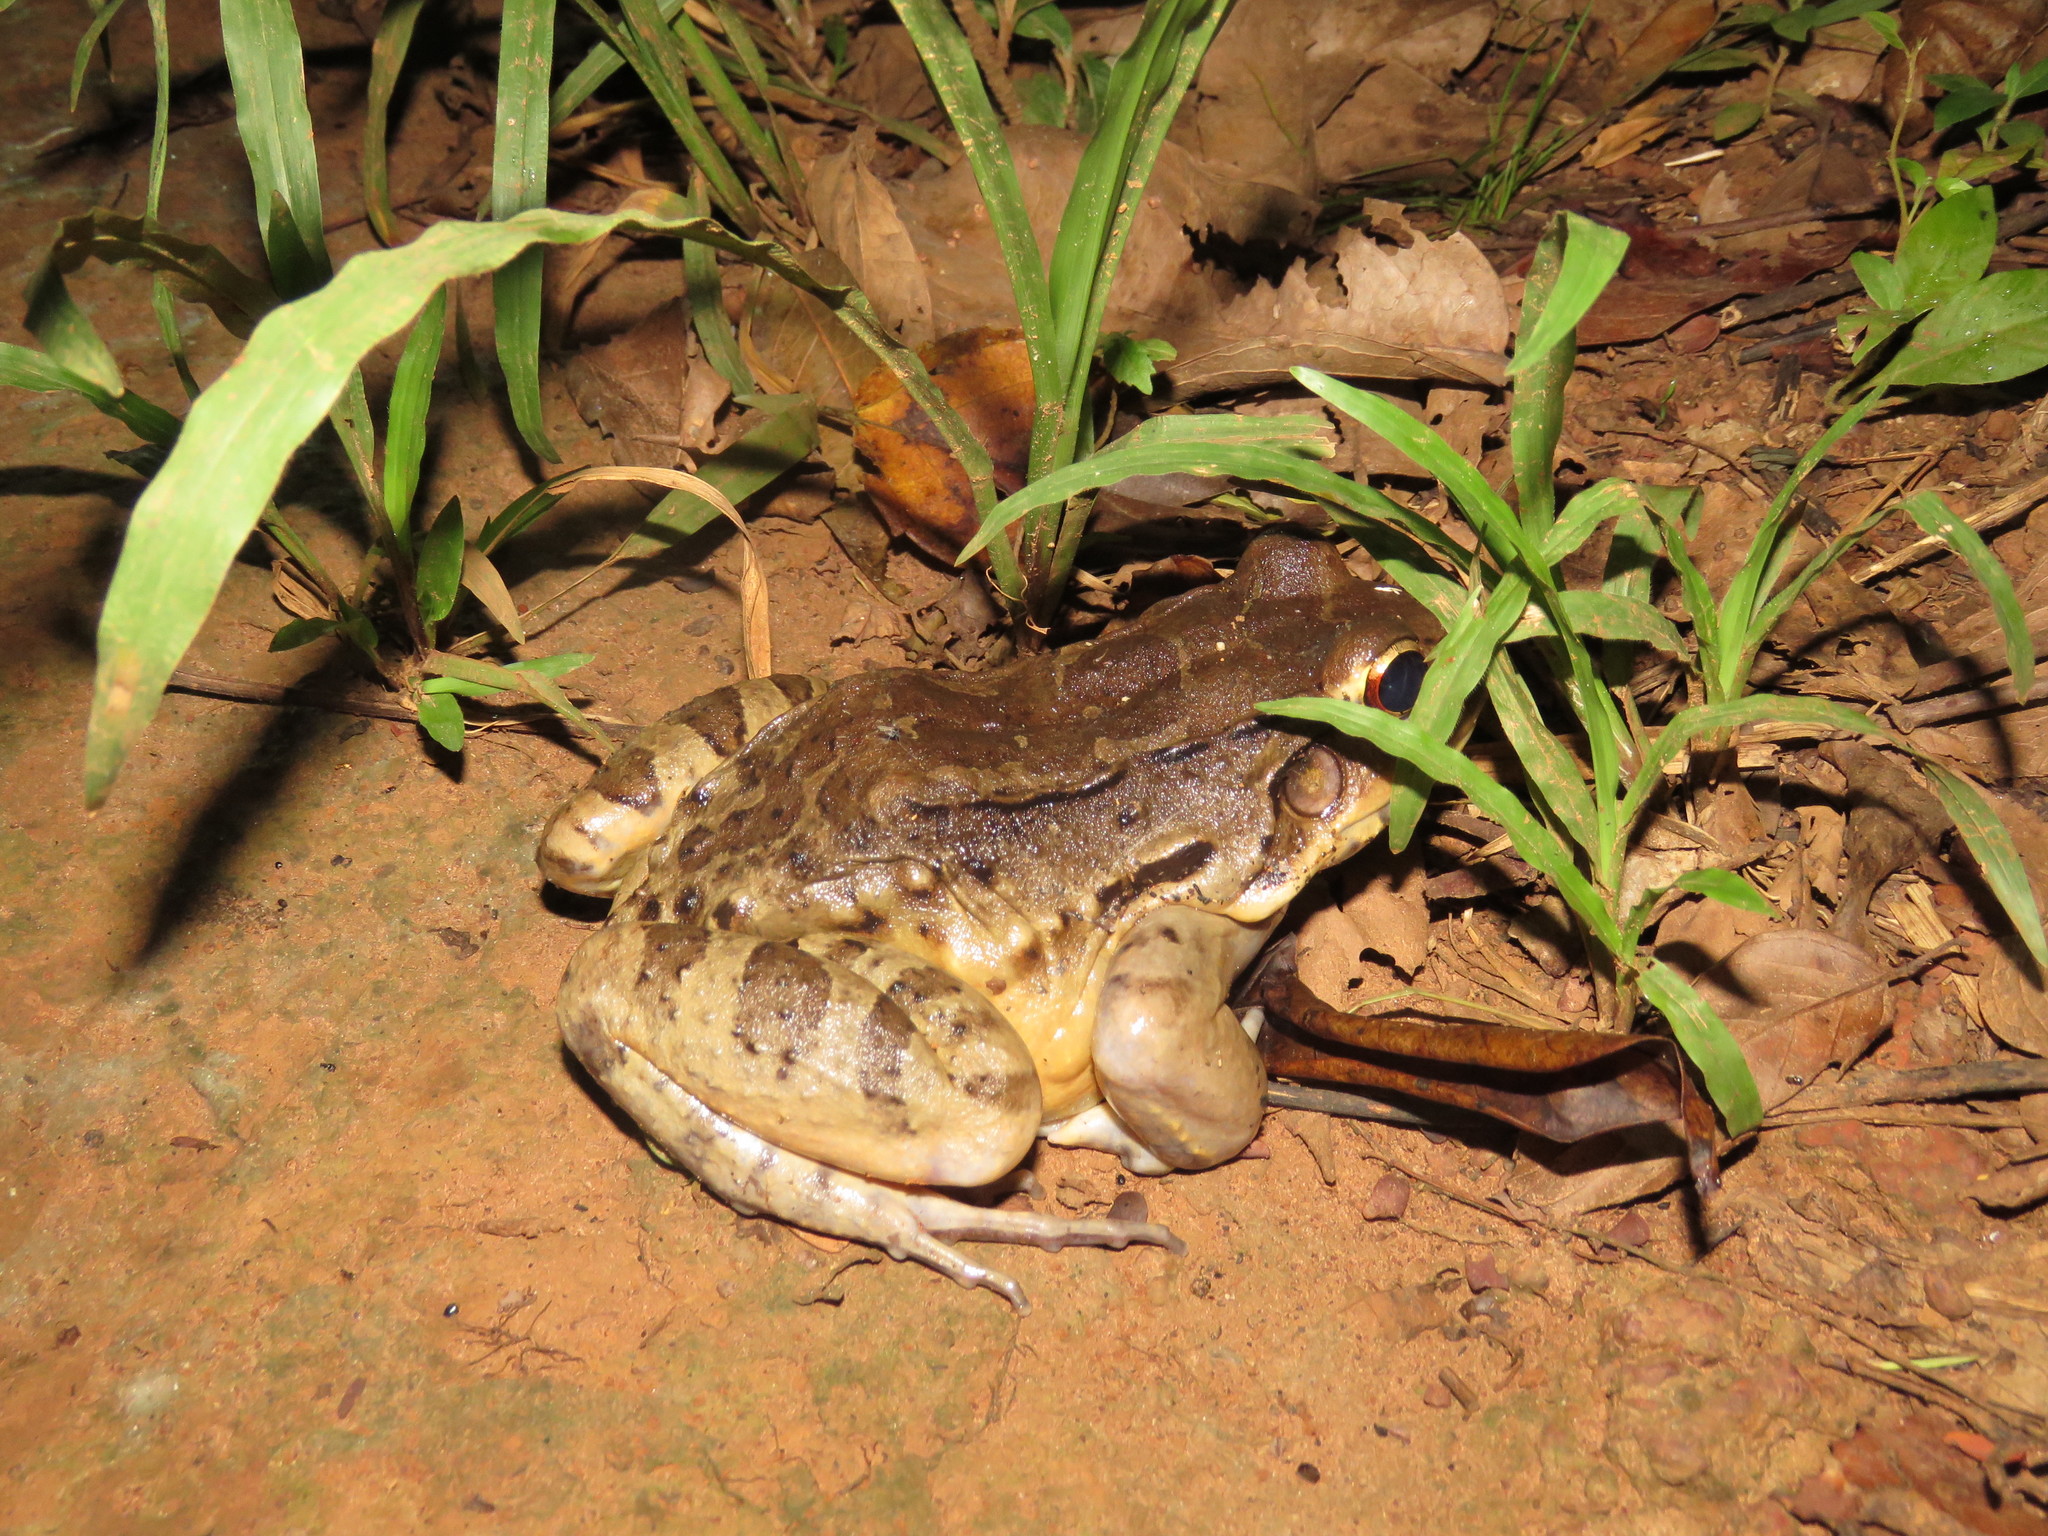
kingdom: Animalia
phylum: Chordata
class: Amphibia
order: Anura
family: Leptodactylidae
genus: Leptodactylus
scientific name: Leptodactylus vastus
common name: Northeastern pepper frog
